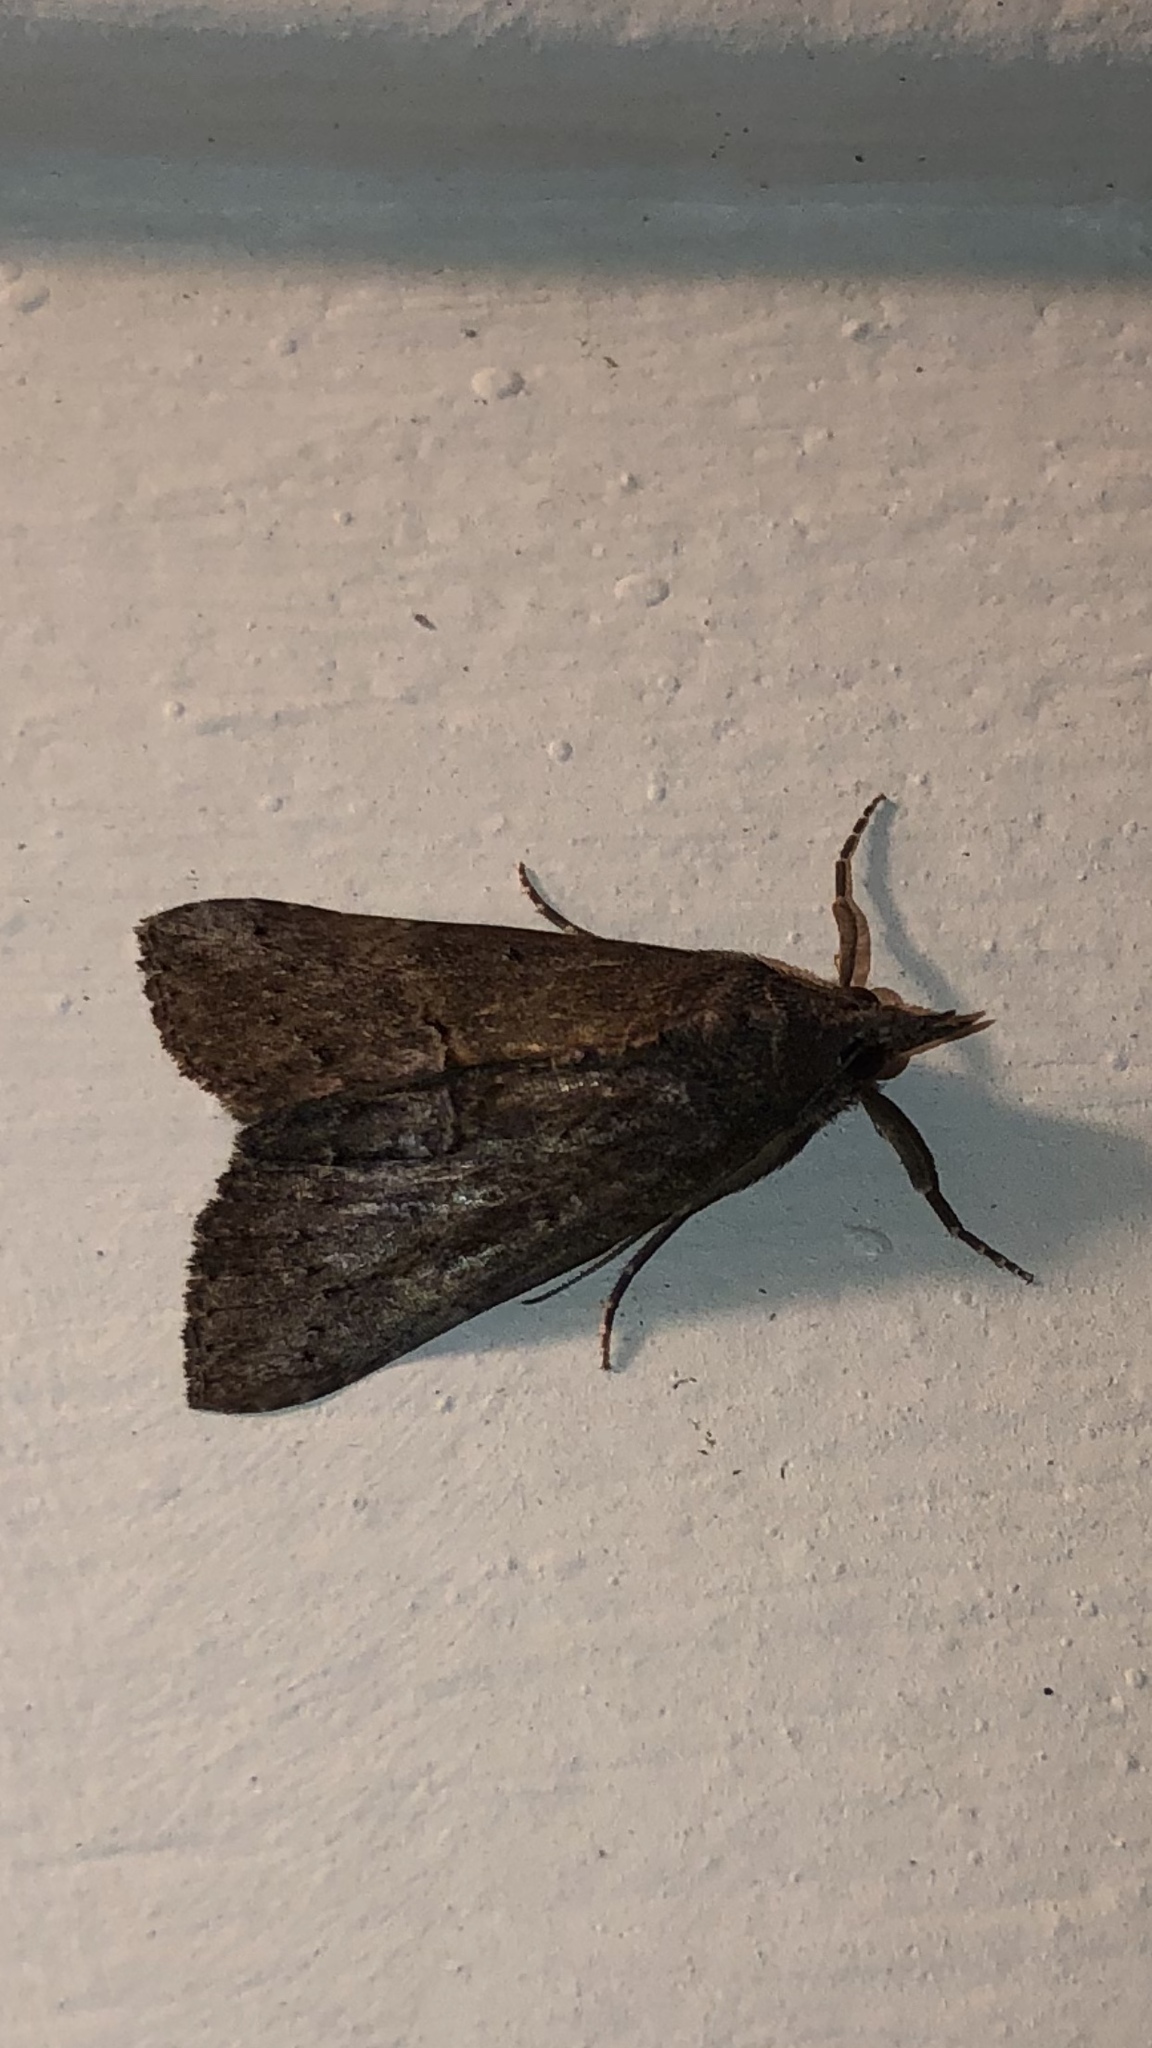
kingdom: Animalia
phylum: Arthropoda
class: Insecta
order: Lepidoptera
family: Erebidae
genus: Hypena
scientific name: Hypena scabra
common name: Green cloverworm
